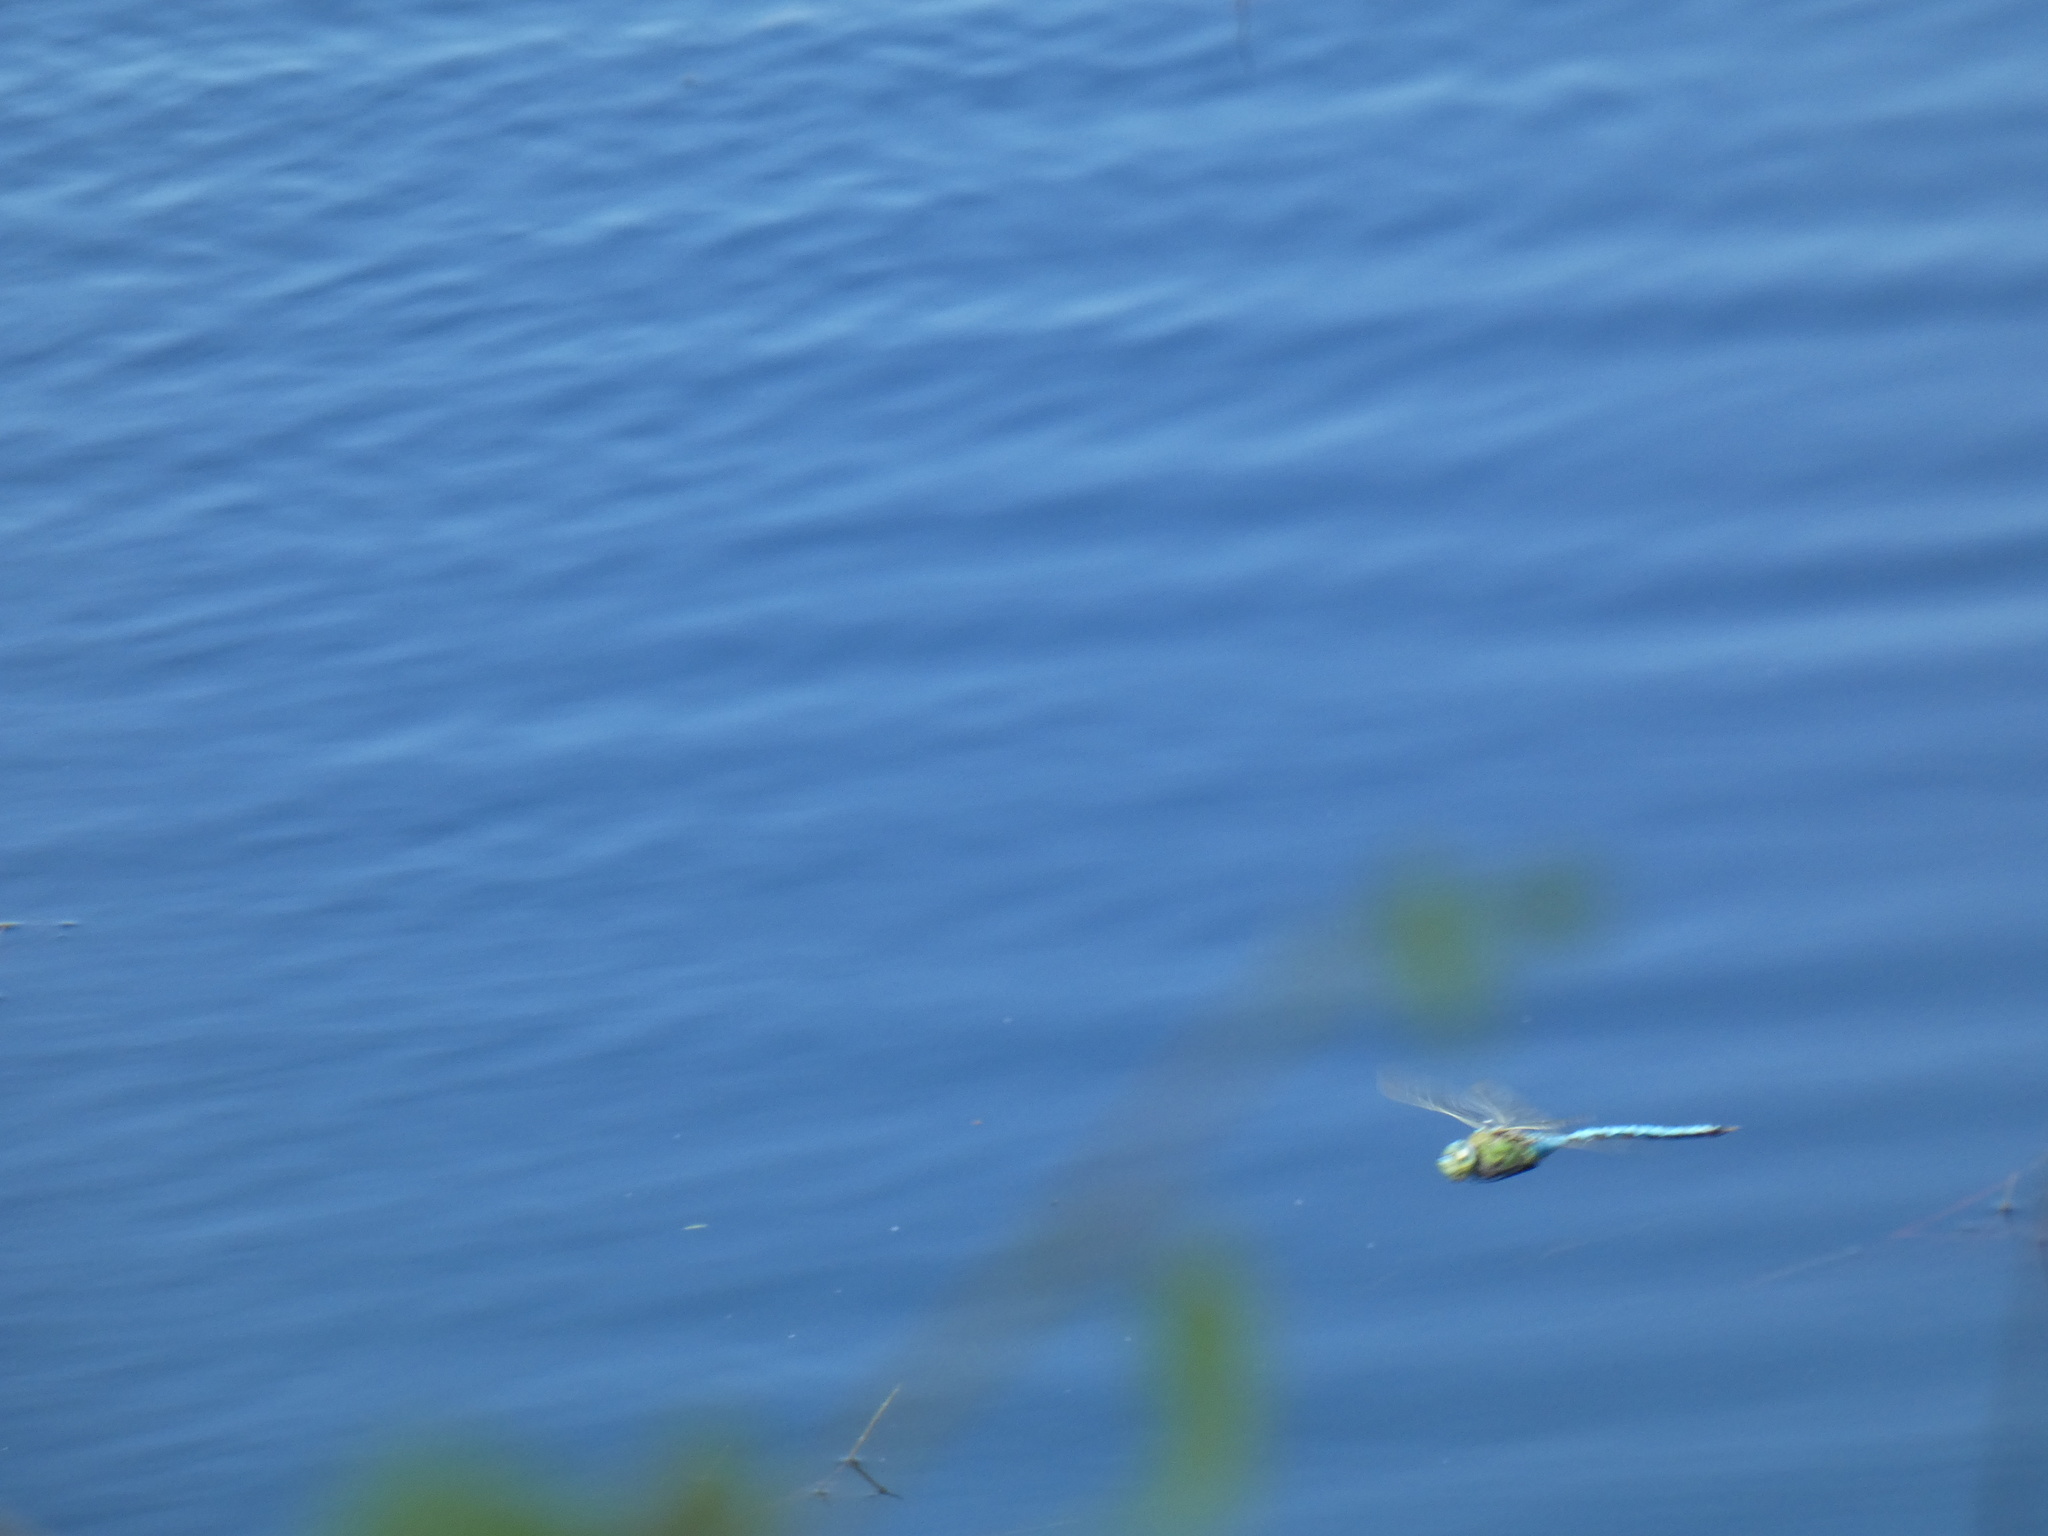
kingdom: Animalia
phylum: Arthropoda
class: Insecta
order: Odonata
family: Aeshnidae
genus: Anax
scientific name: Anax imperator
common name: Emperor dragonfly
